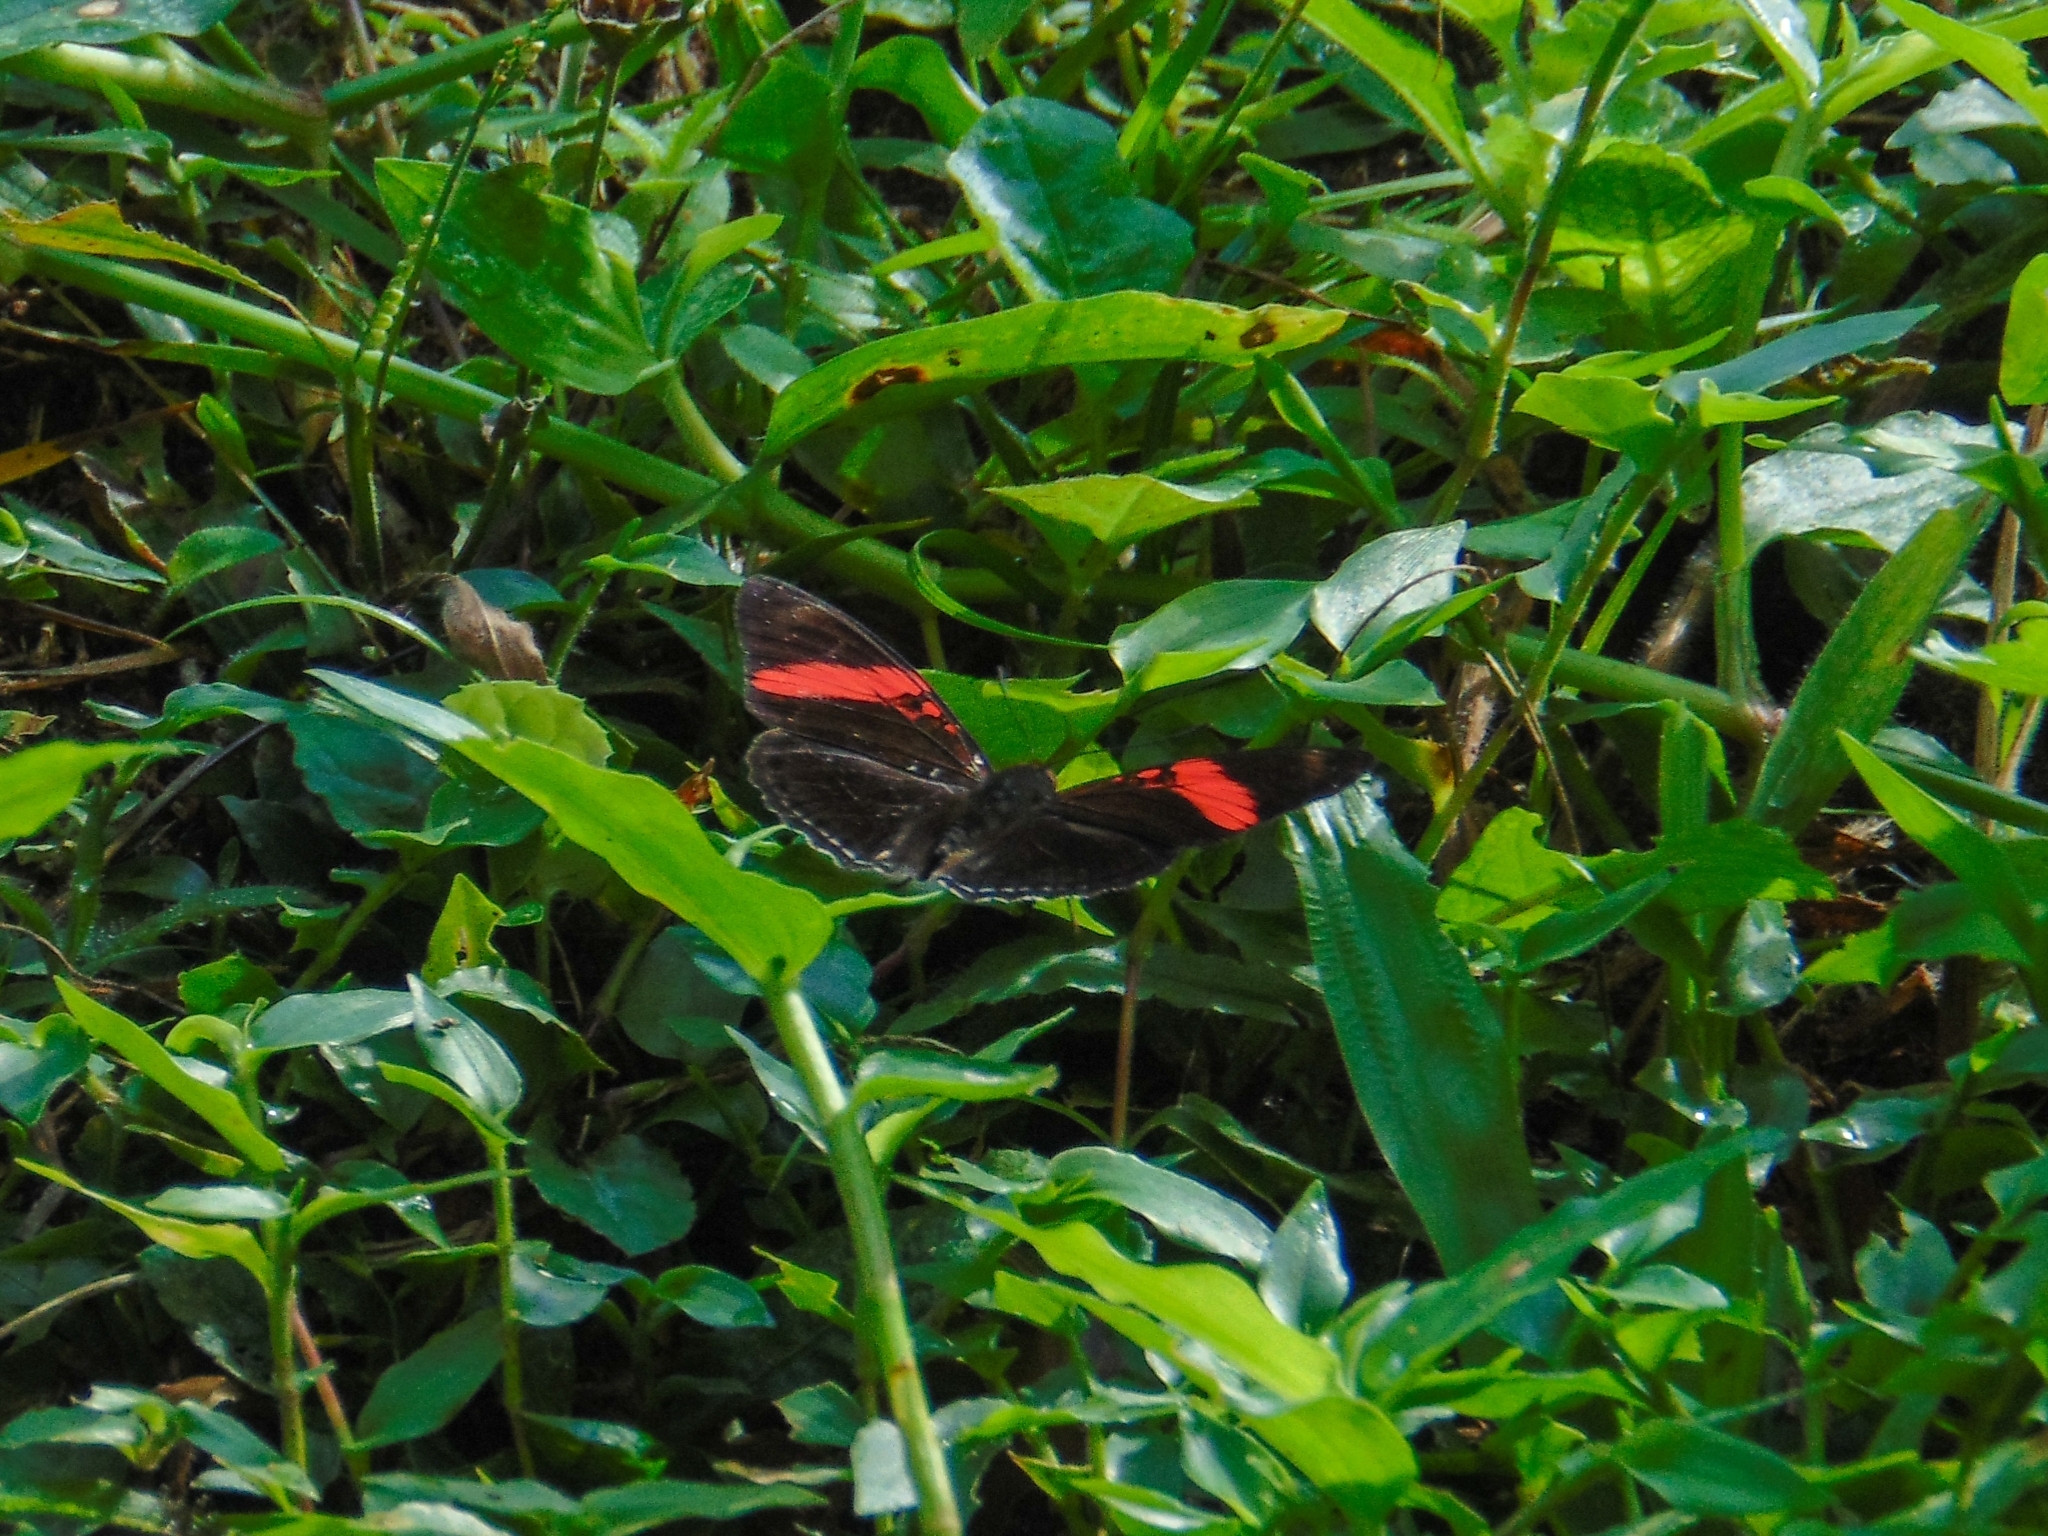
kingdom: Animalia
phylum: Arthropoda
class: Insecta
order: Lepidoptera
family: Nymphalidae
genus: Limenitis
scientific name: Limenitis isis
